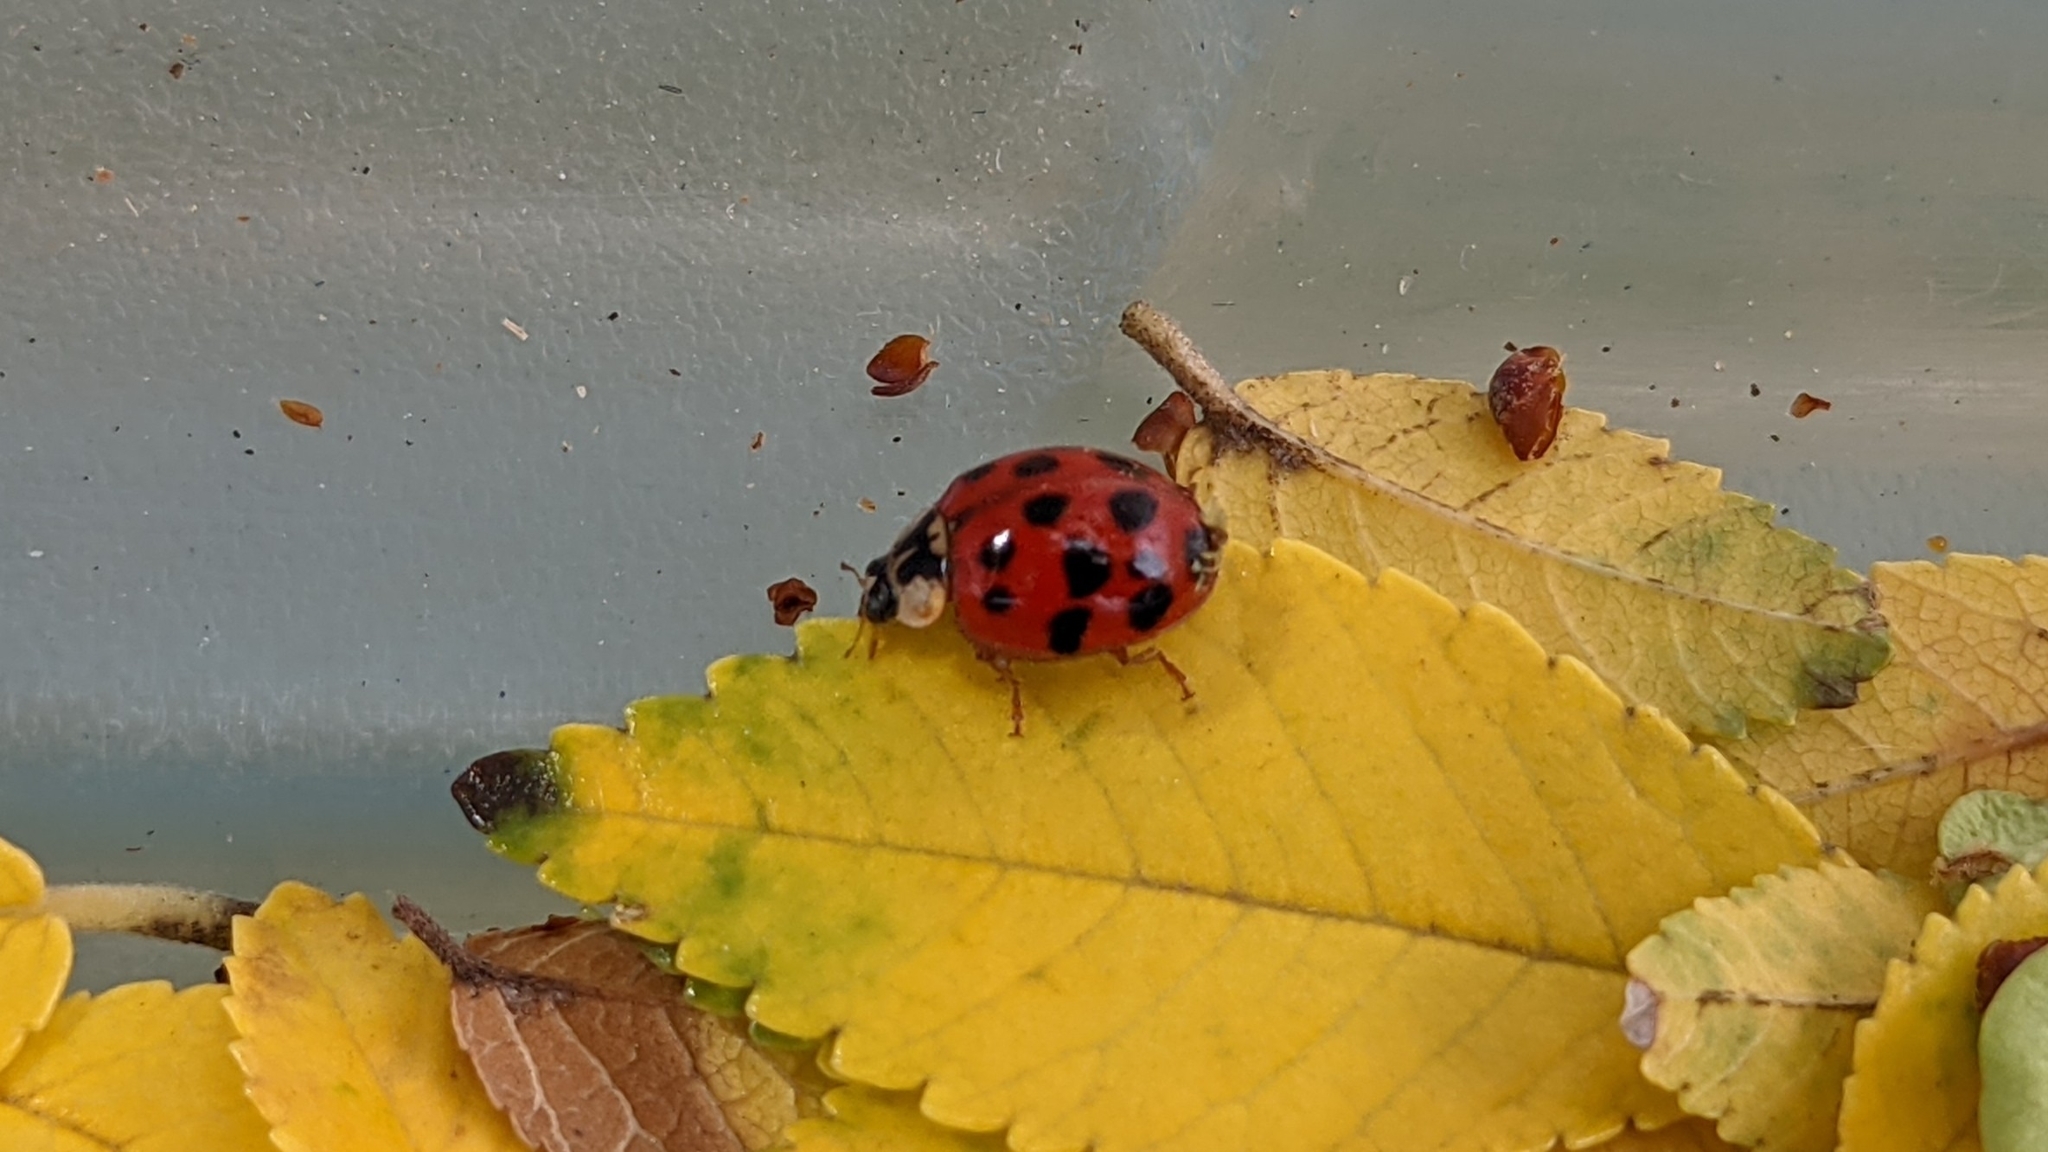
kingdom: Animalia
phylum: Arthropoda
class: Insecta
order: Coleoptera
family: Coccinellidae
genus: Harmonia
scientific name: Harmonia axyridis
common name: Harlequin ladybird
